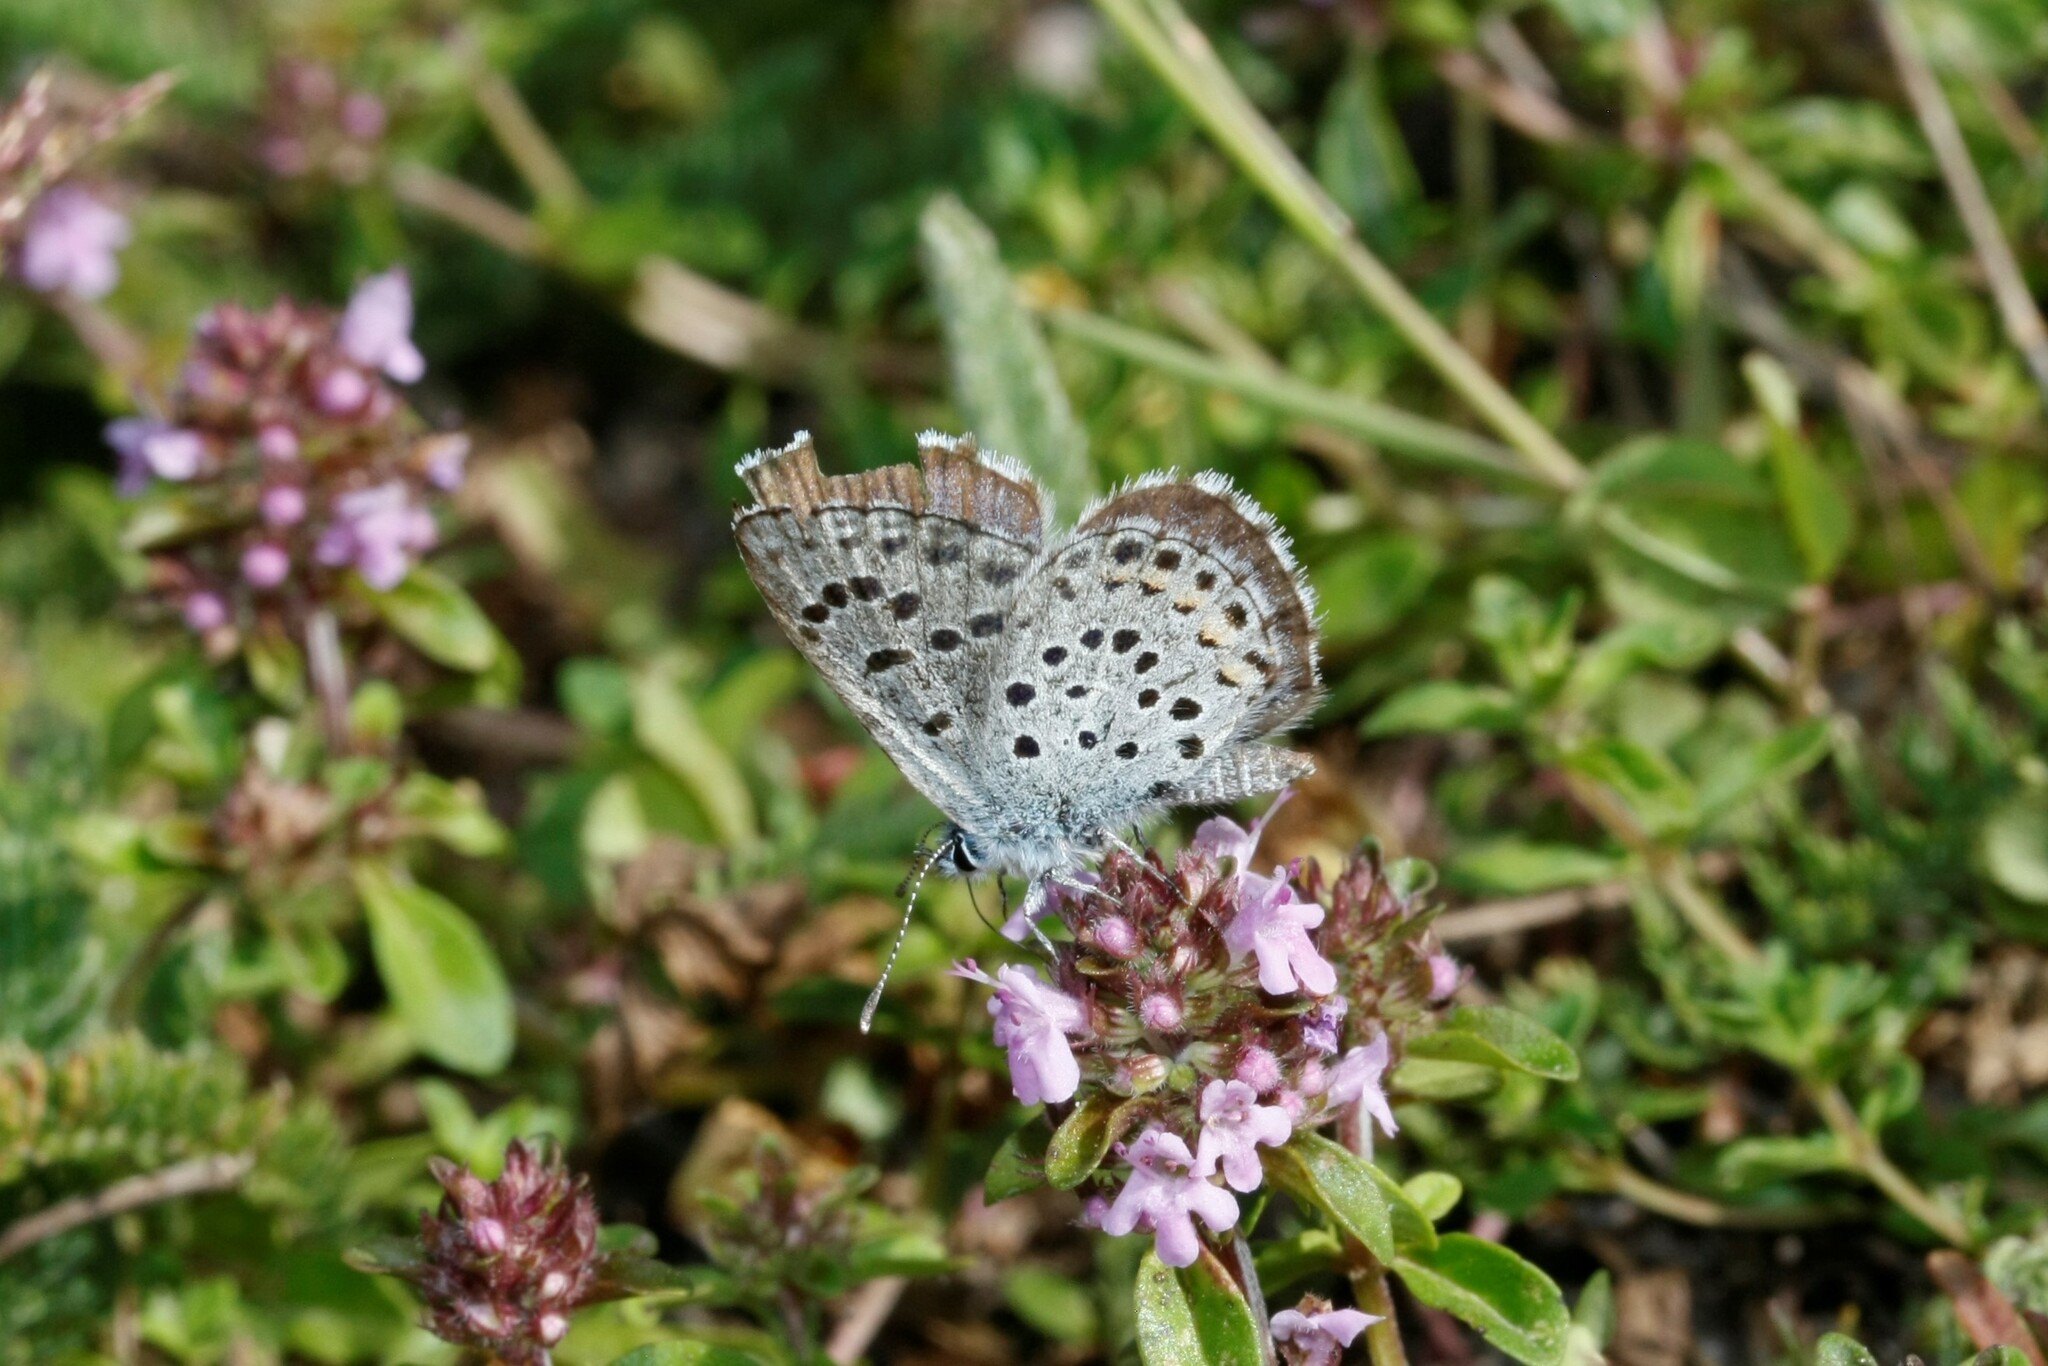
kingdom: Animalia
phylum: Arthropoda
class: Insecta
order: Lepidoptera
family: Lycaenidae
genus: Pseudophilotes
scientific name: Pseudophilotes baton
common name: Baton blue
